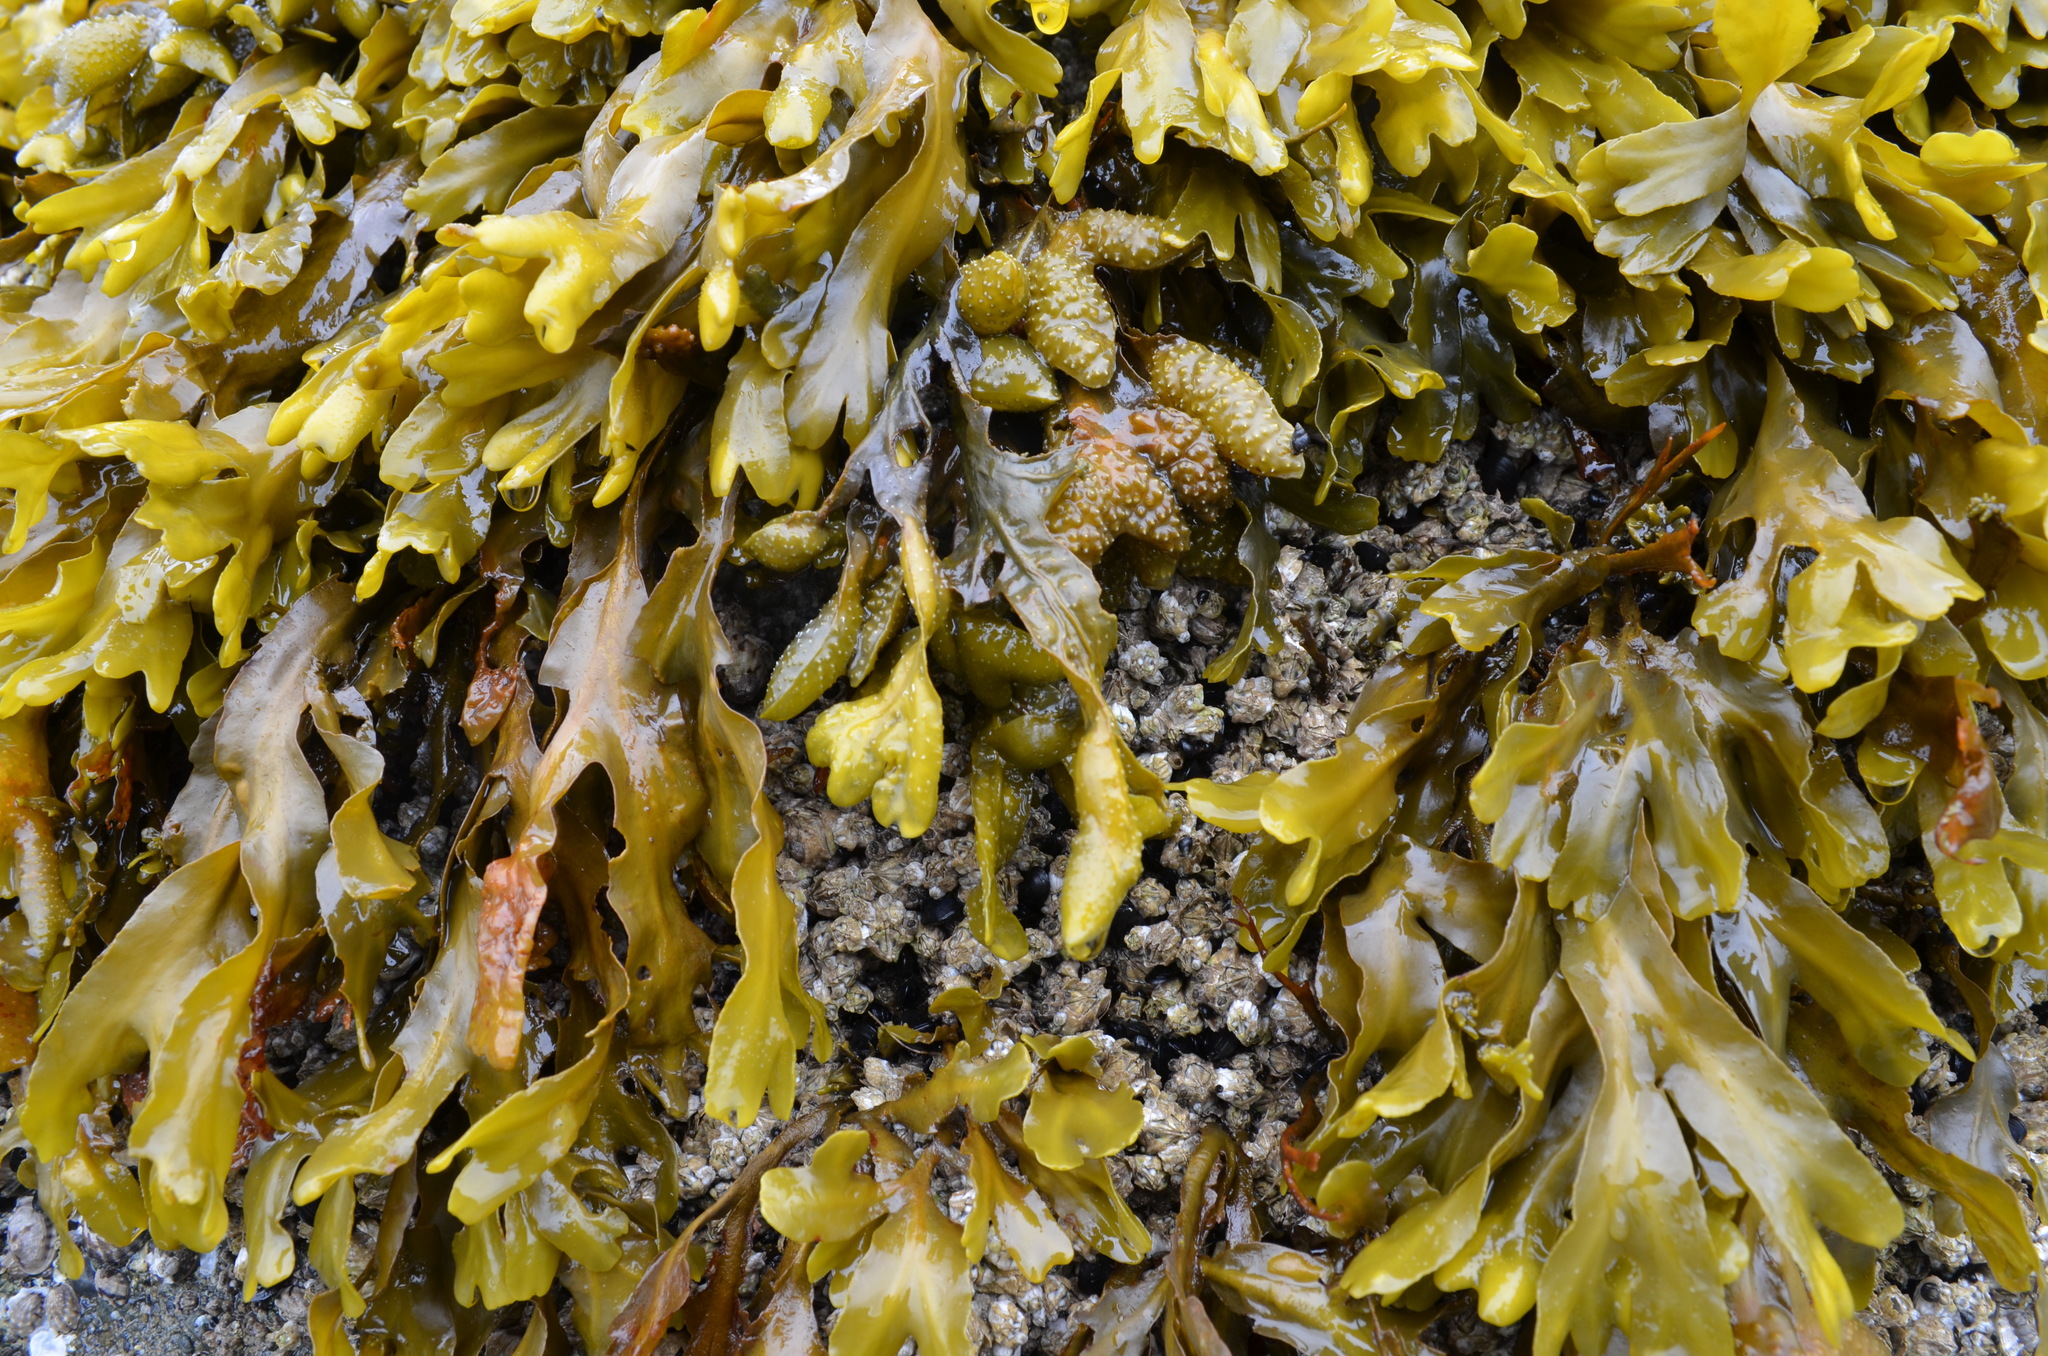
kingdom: Chromista
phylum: Ochrophyta
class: Phaeophyceae
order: Fucales
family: Fucaceae
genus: Fucus
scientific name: Fucus distichus
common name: Rockweed
